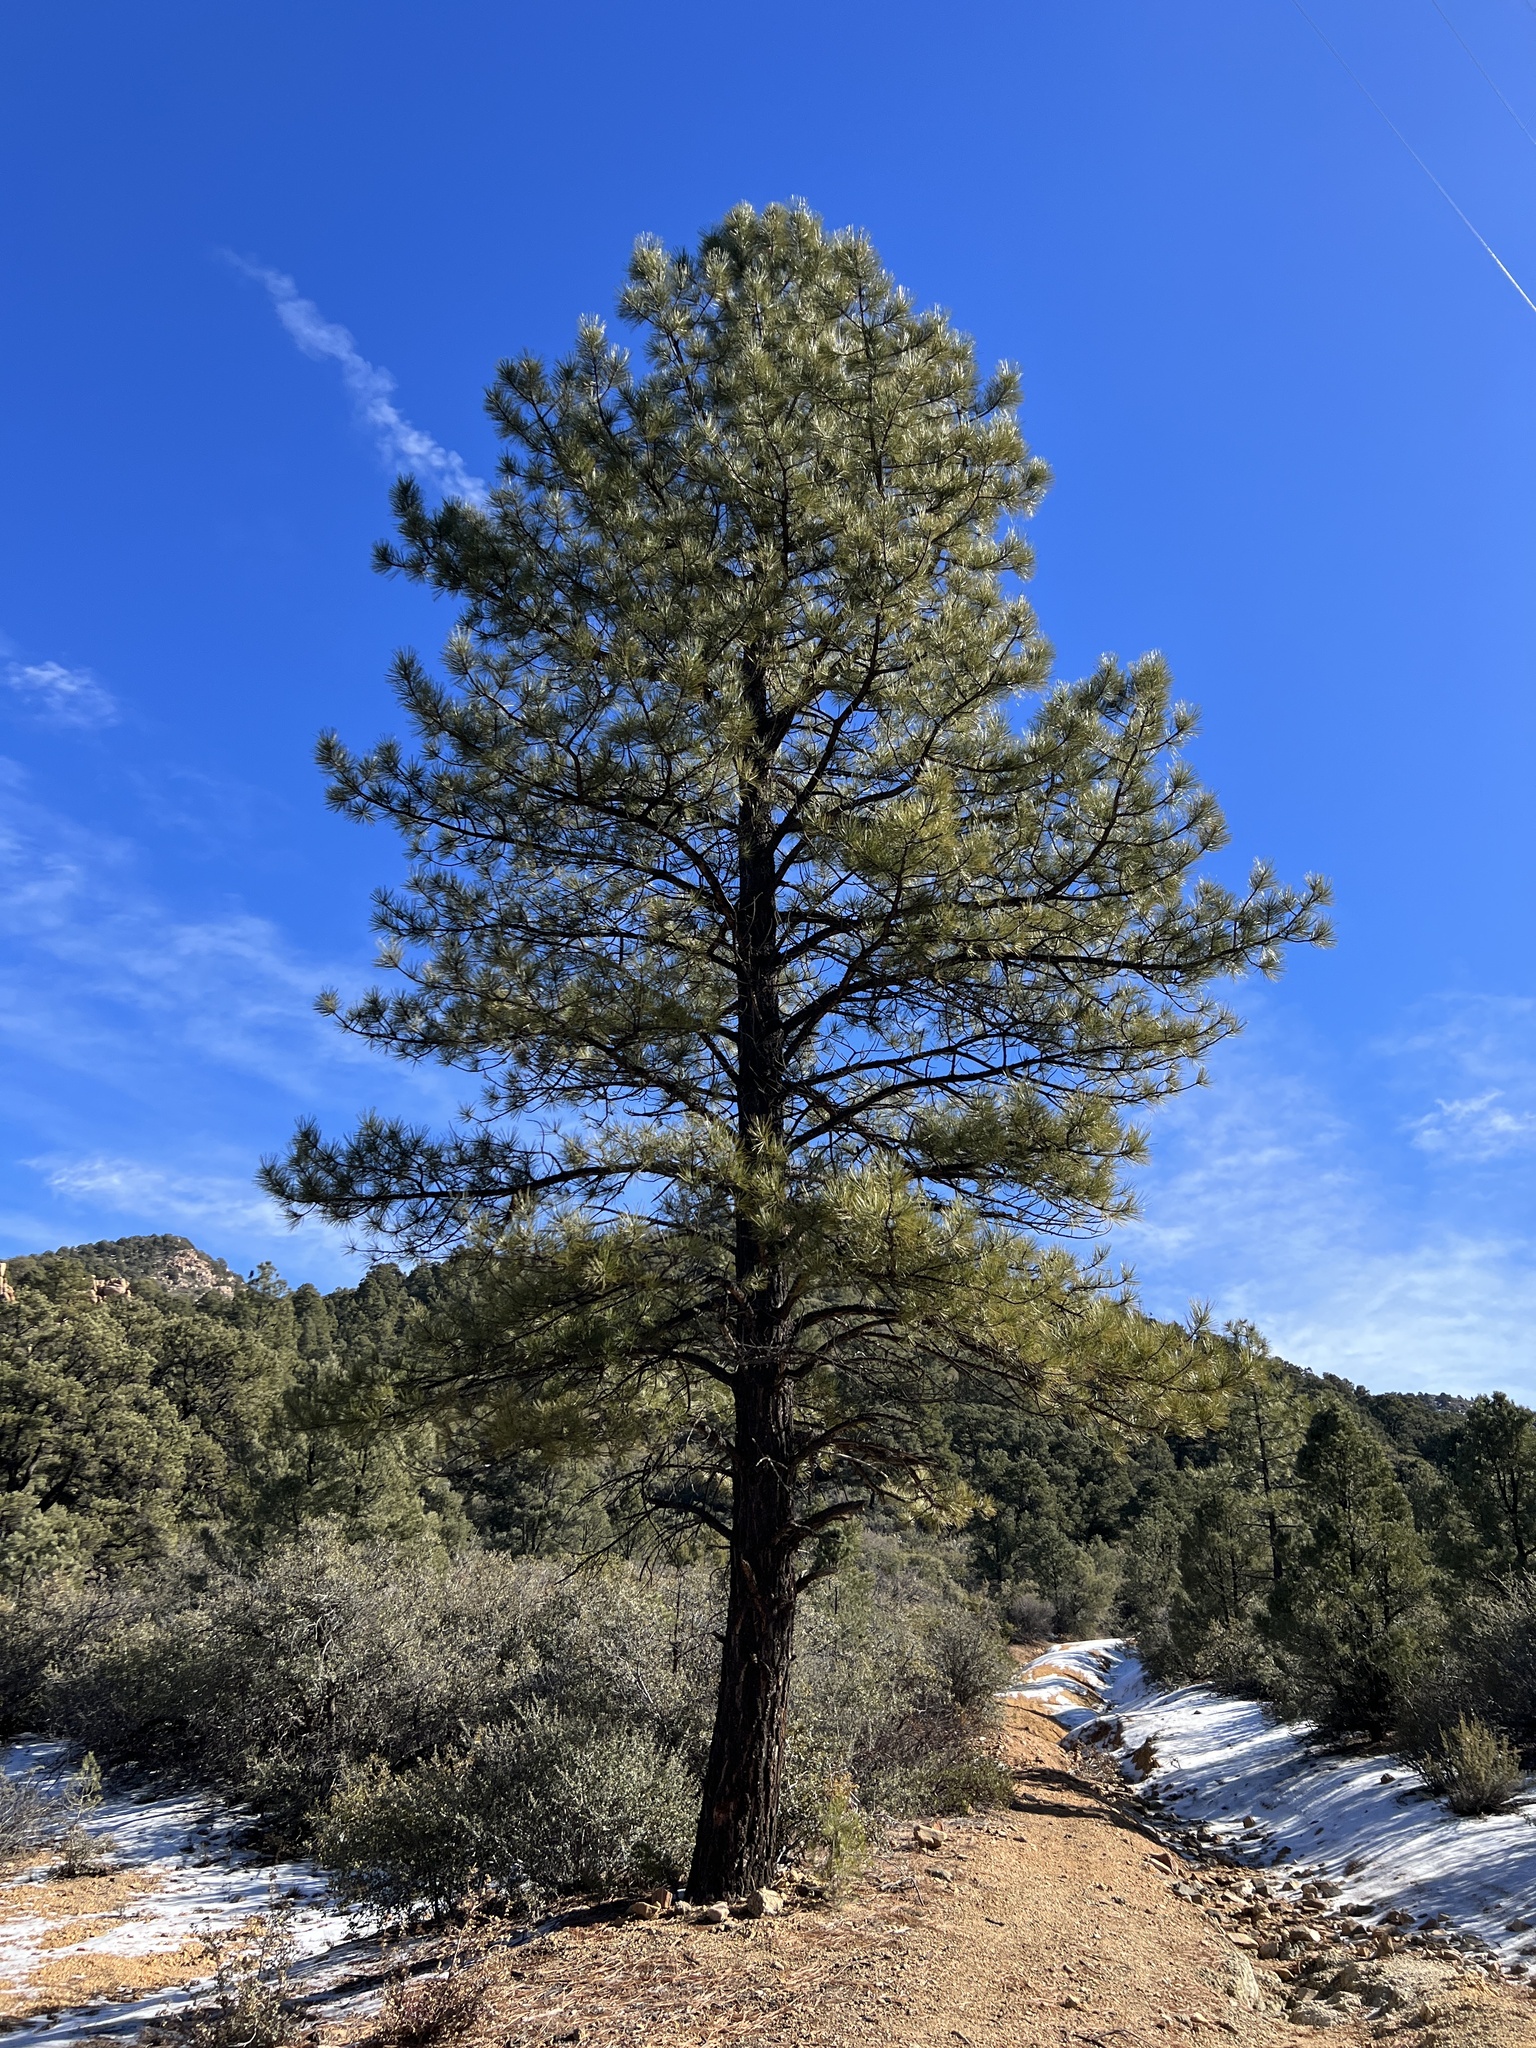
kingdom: Plantae
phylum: Tracheophyta
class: Pinopsida
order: Pinales
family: Pinaceae
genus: Pinus
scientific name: Pinus ponderosa
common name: Western yellow-pine
